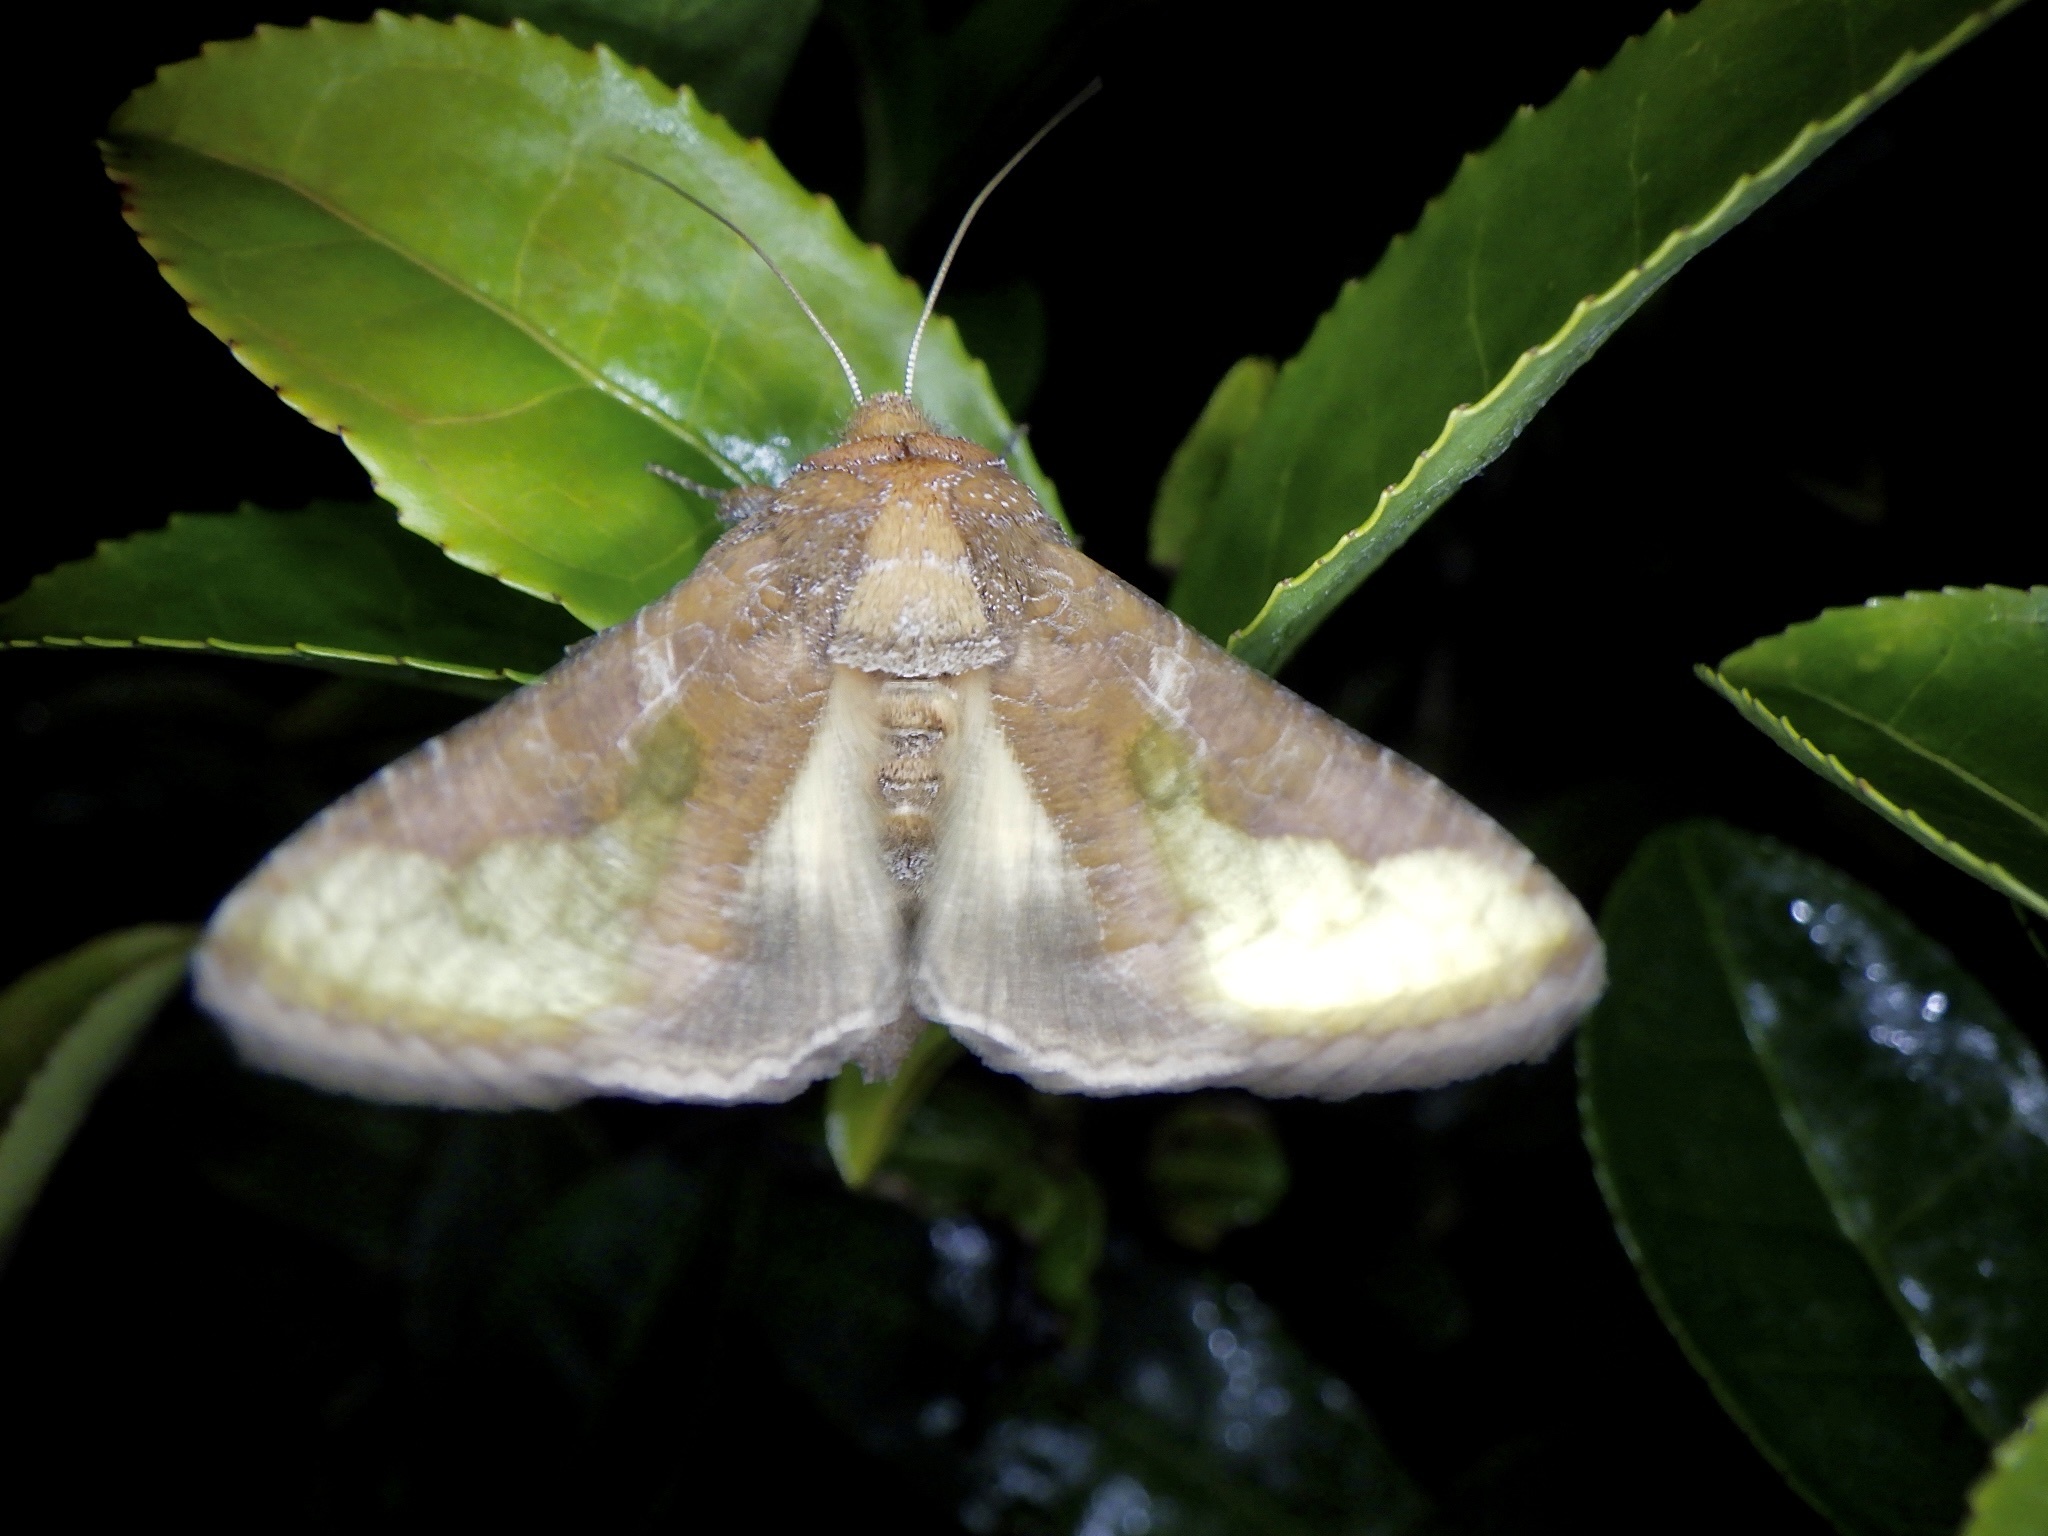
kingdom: Animalia
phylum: Arthropoda
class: Insecta
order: Lepidoptera
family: Noctuidae
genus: Thysanoplusia
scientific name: Thysanoplusia intermixta
